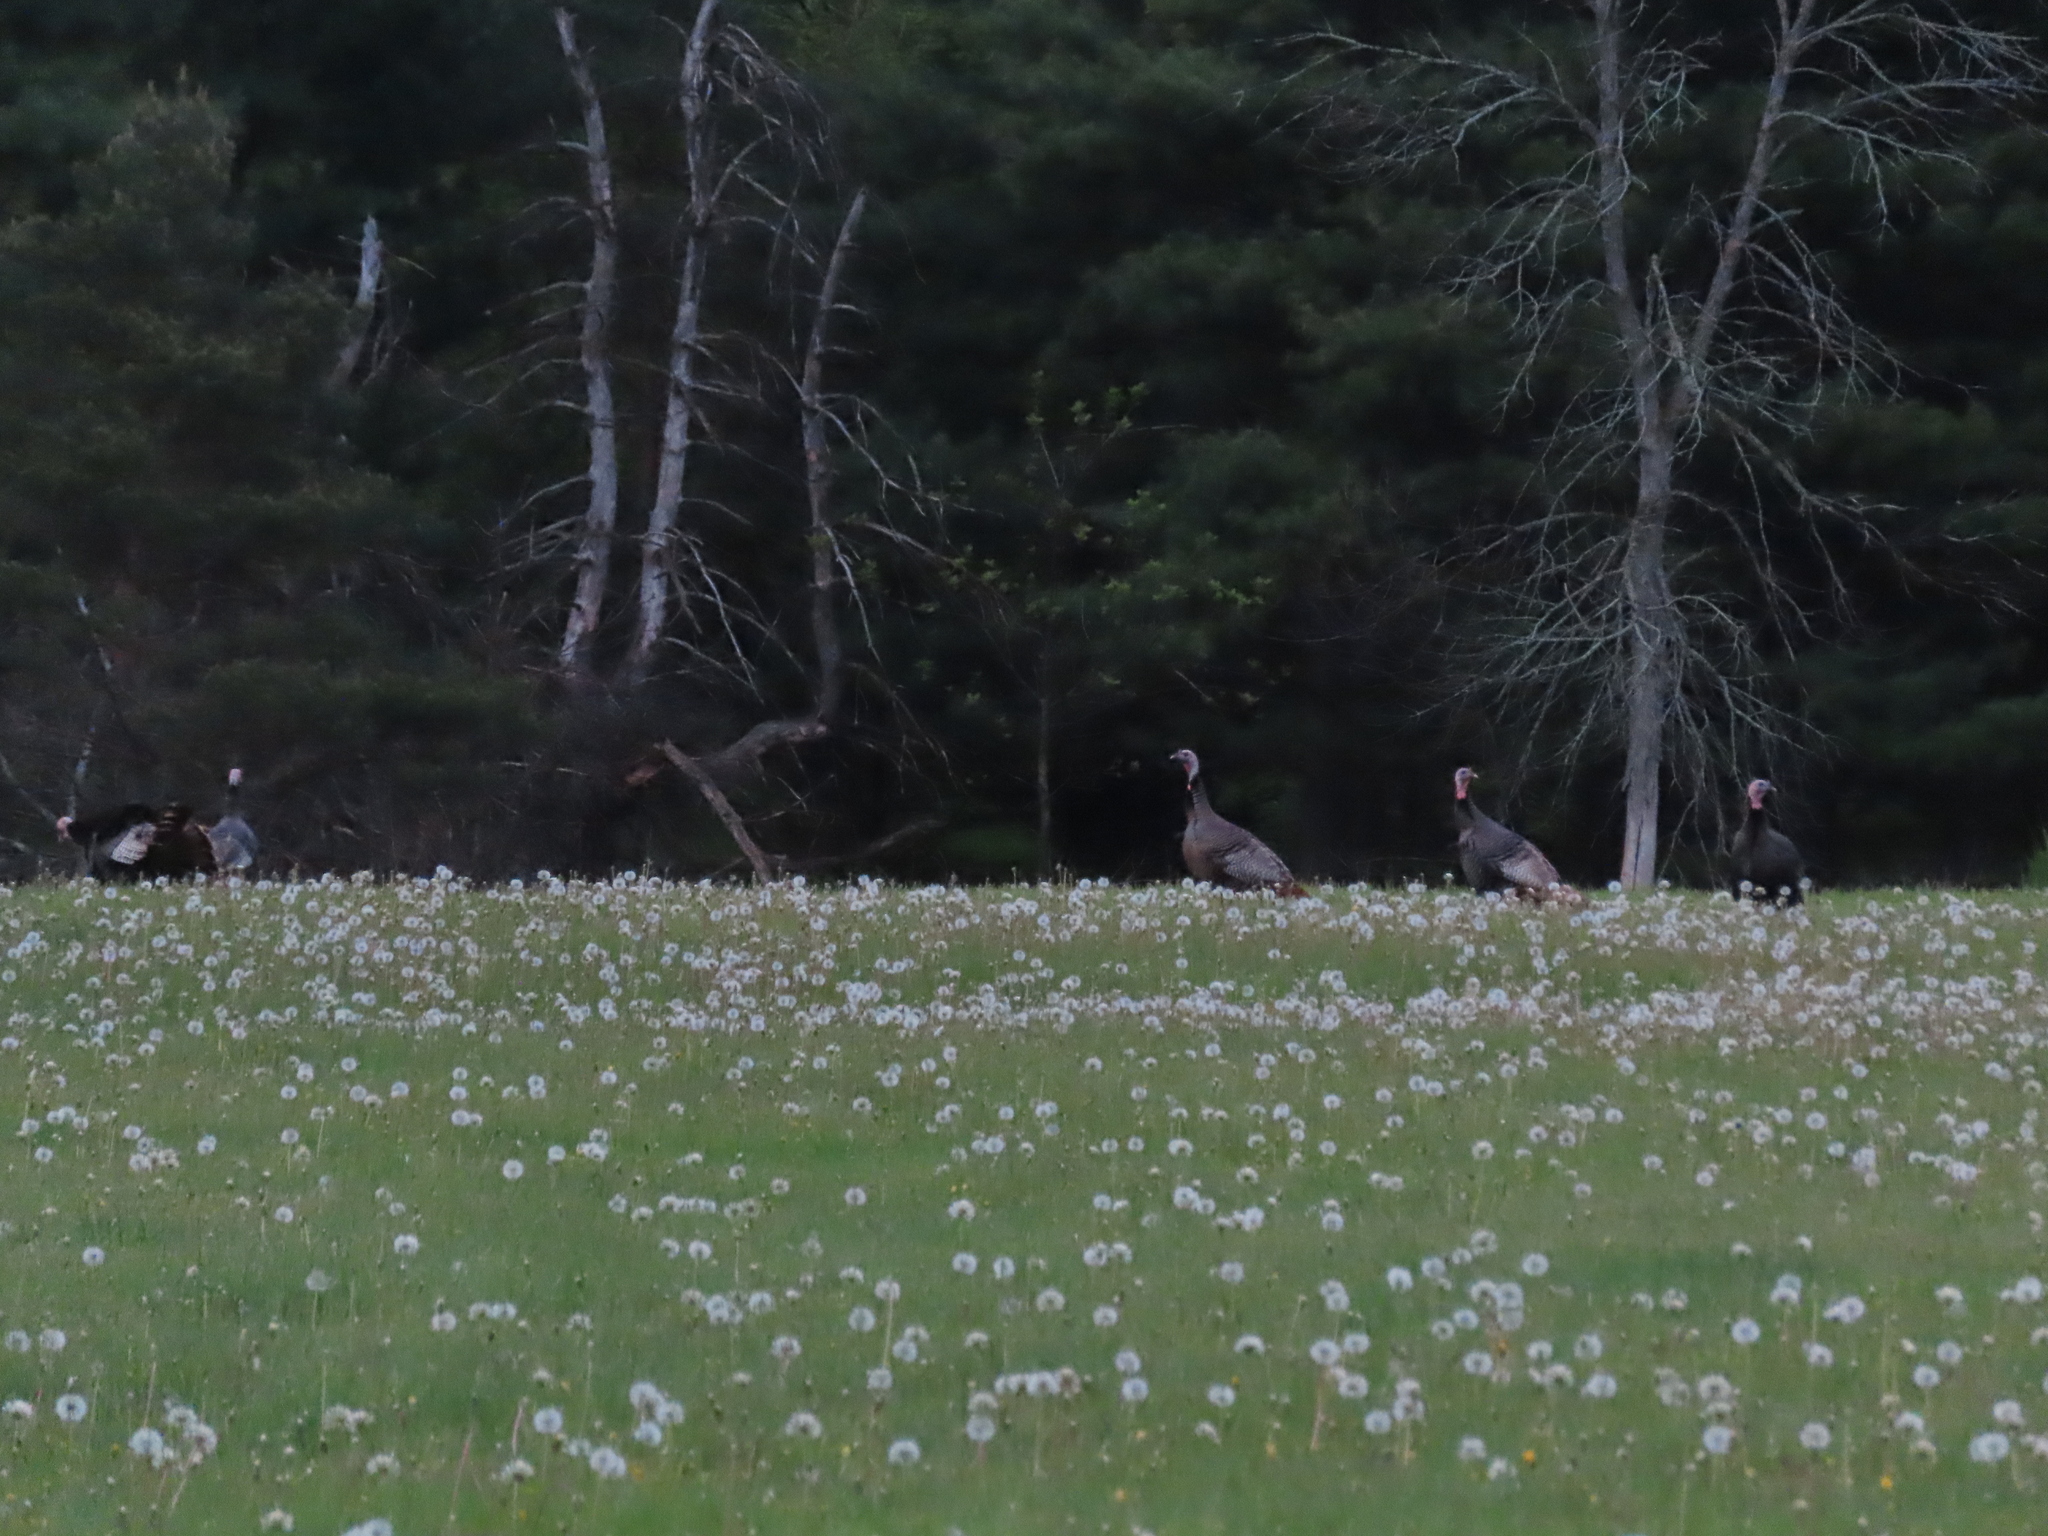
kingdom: Animalia
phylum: Chordata
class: Aves
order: Galliformes
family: Phasianidae
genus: Meleagris
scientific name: Meleagris gallopavo
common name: Wild turkey
